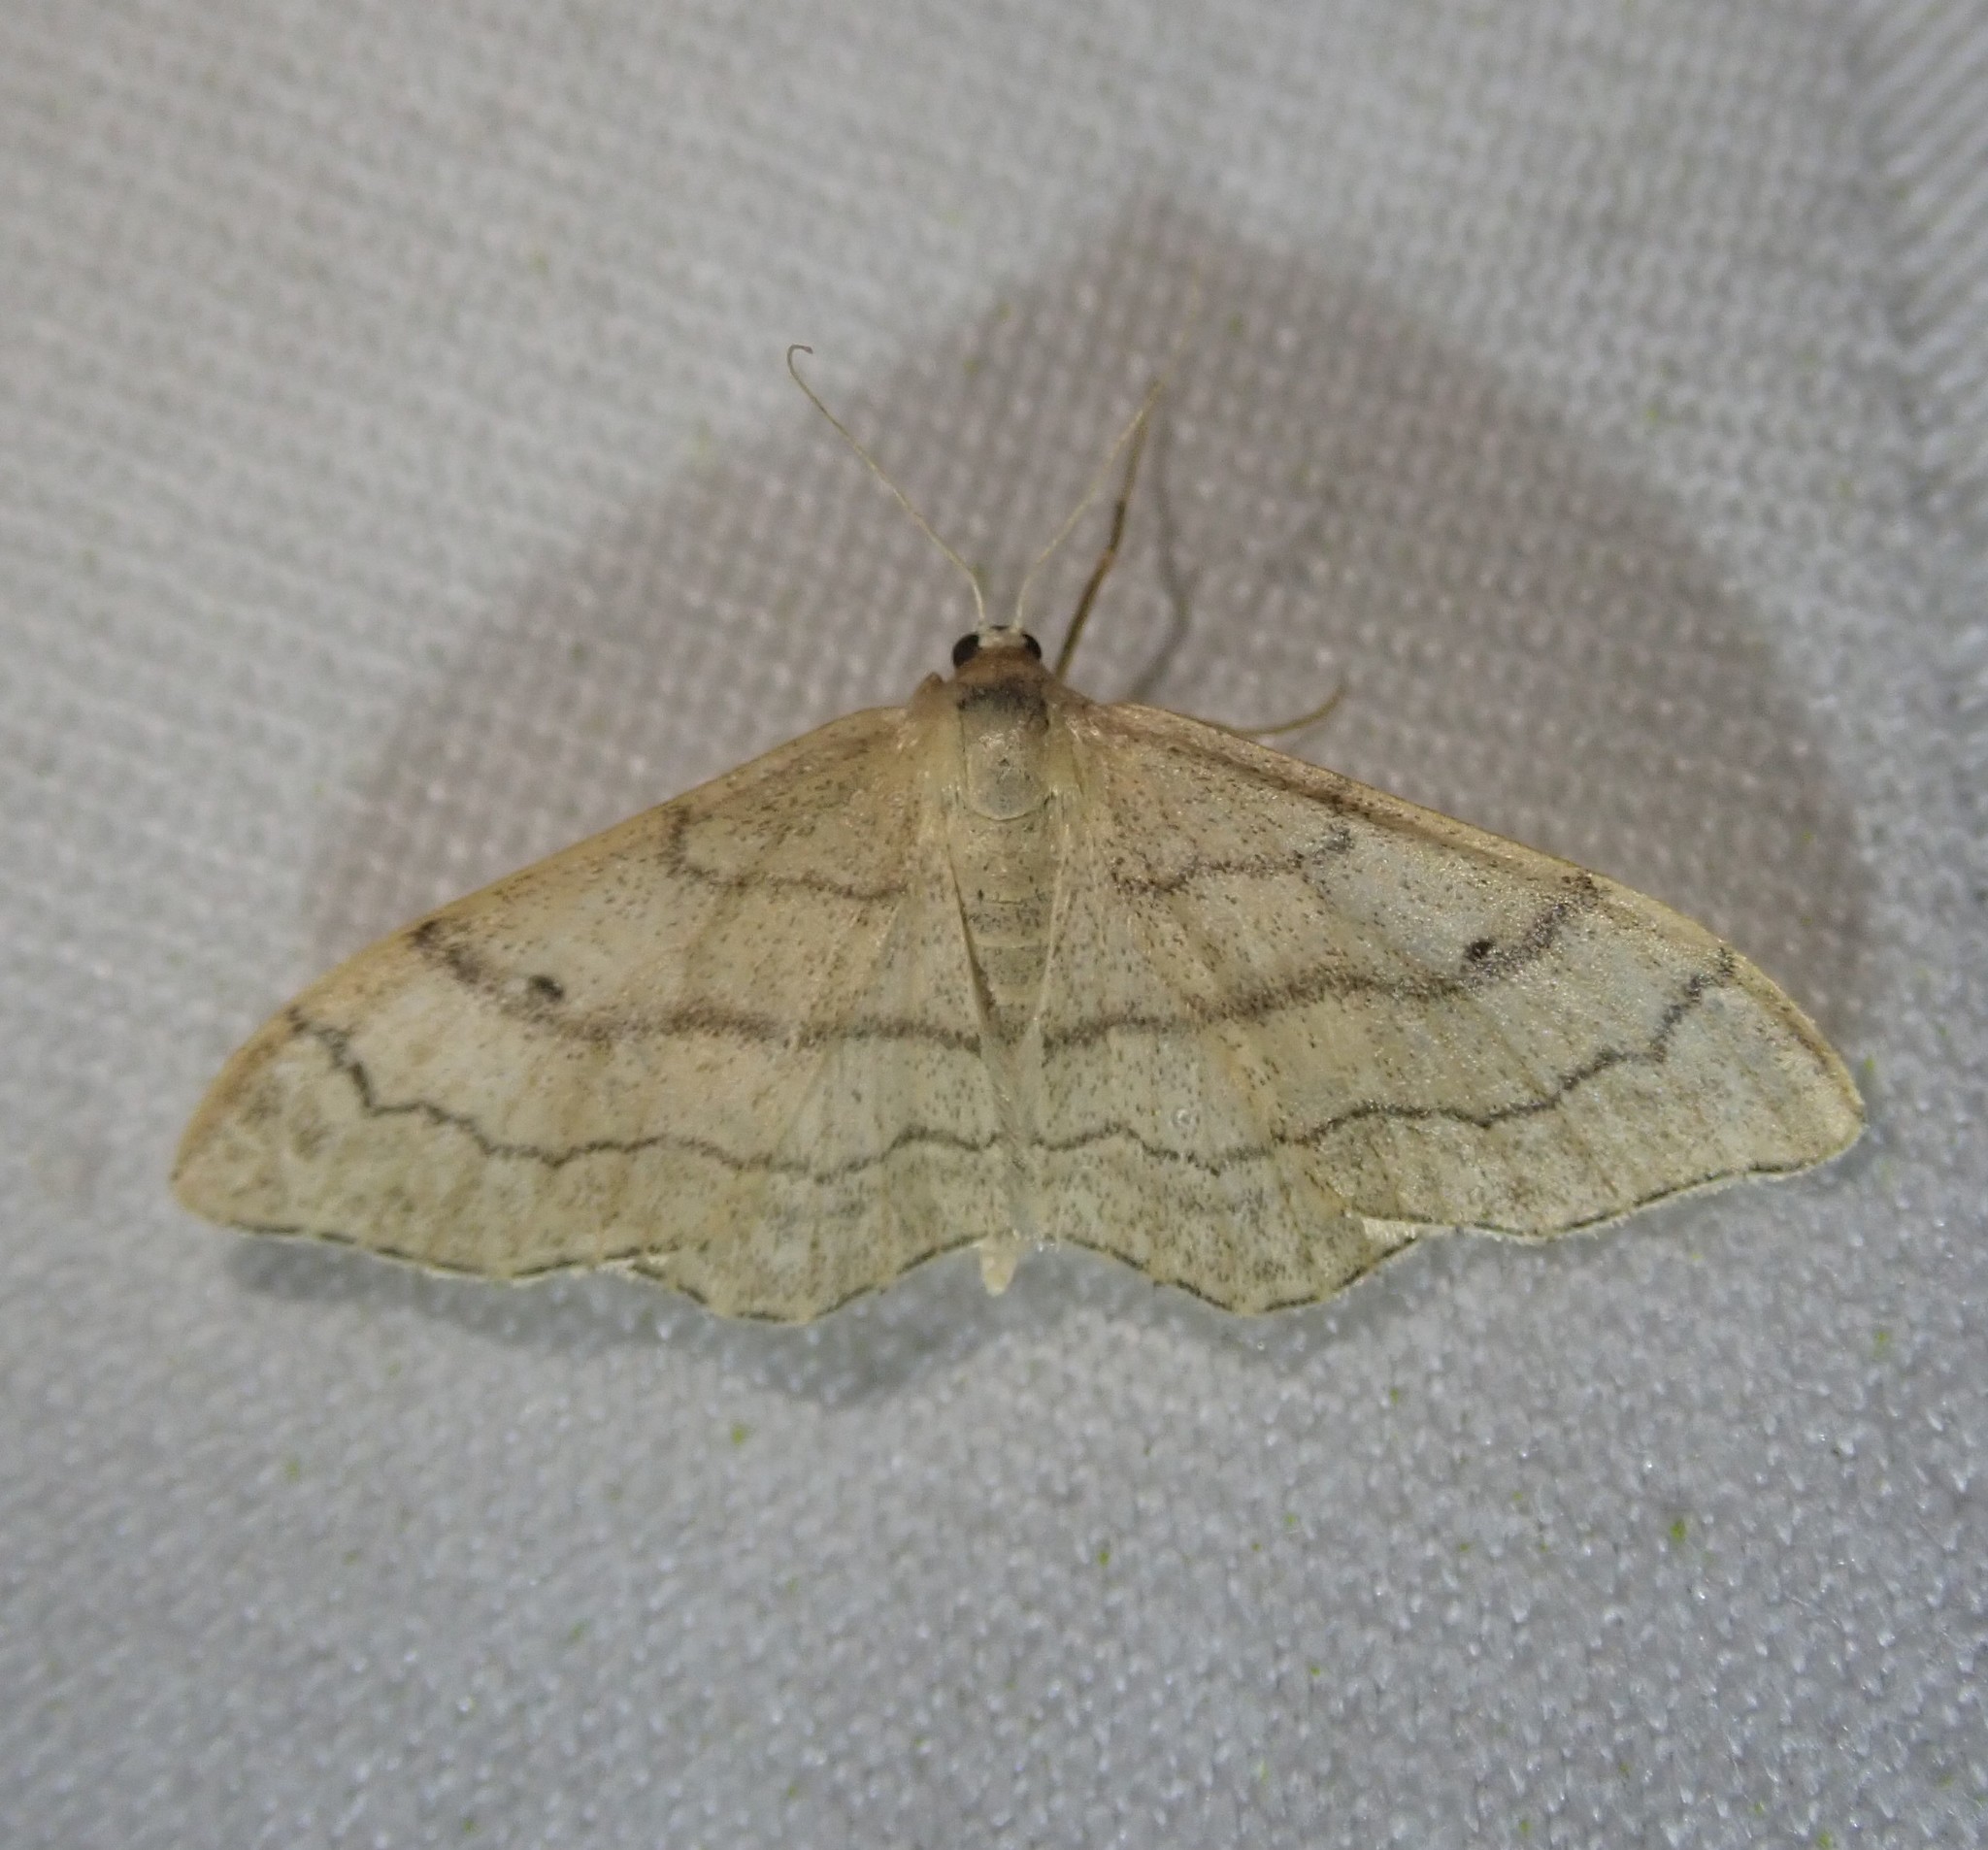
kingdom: Animalia
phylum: Arthropoda
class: Insecta
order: Lepidoptera
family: Geometridae
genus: Idaea
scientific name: Idaea aversata
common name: Riband wave
